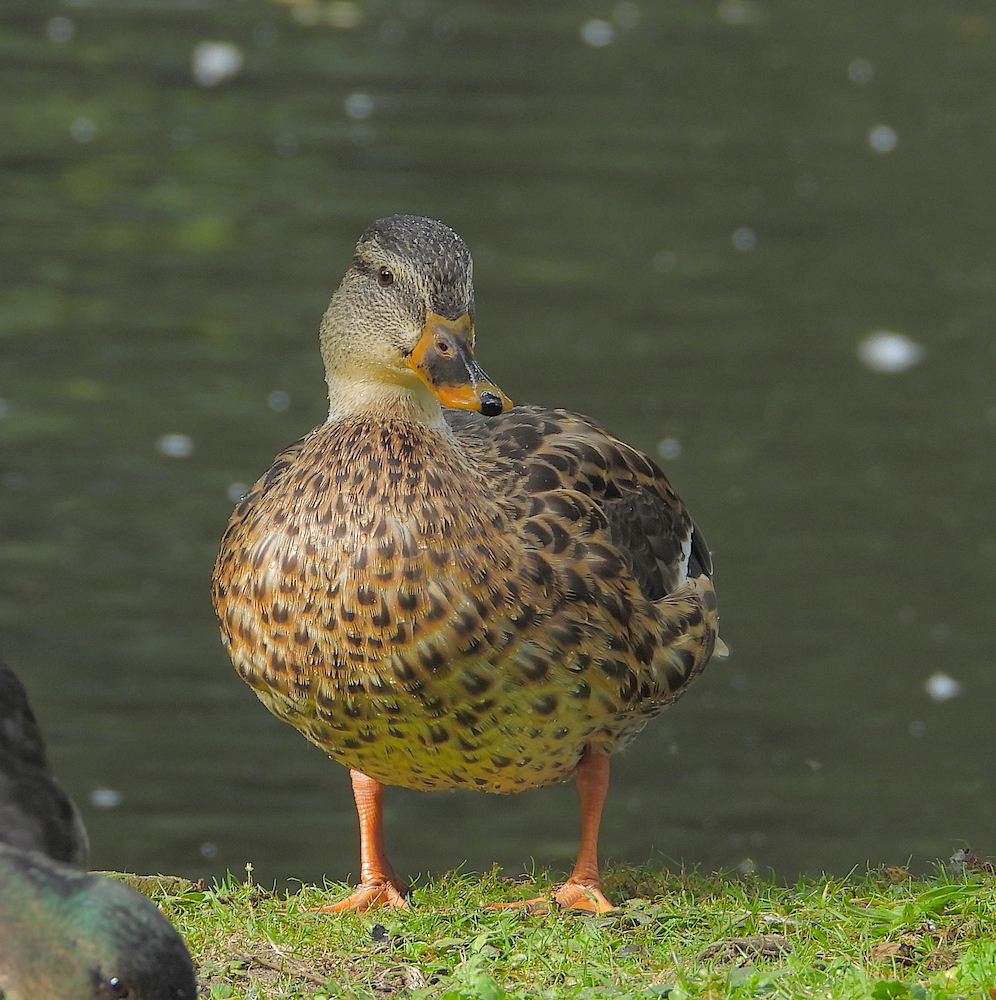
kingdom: Animalia
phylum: Chordata
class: Aves
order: Anseriformes
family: Anatidae
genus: Anas
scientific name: Anas platyrhynchos
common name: Mallard
